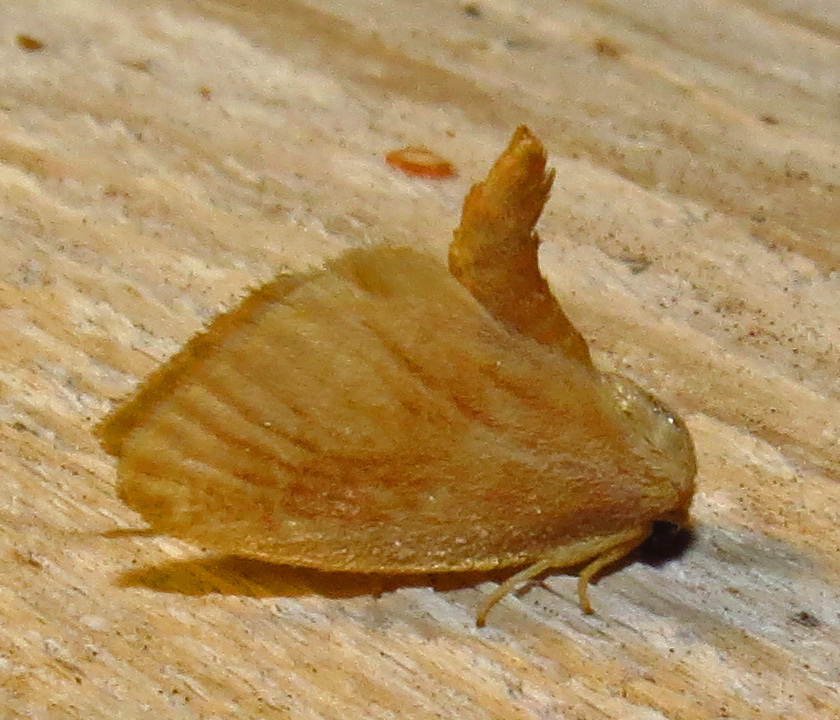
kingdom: Animalia
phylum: Arthropoda
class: Insecta
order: Lepidoptera
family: Limacodidae
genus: Tortricidia
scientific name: Tortricidia testacea
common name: Early button slug moth
